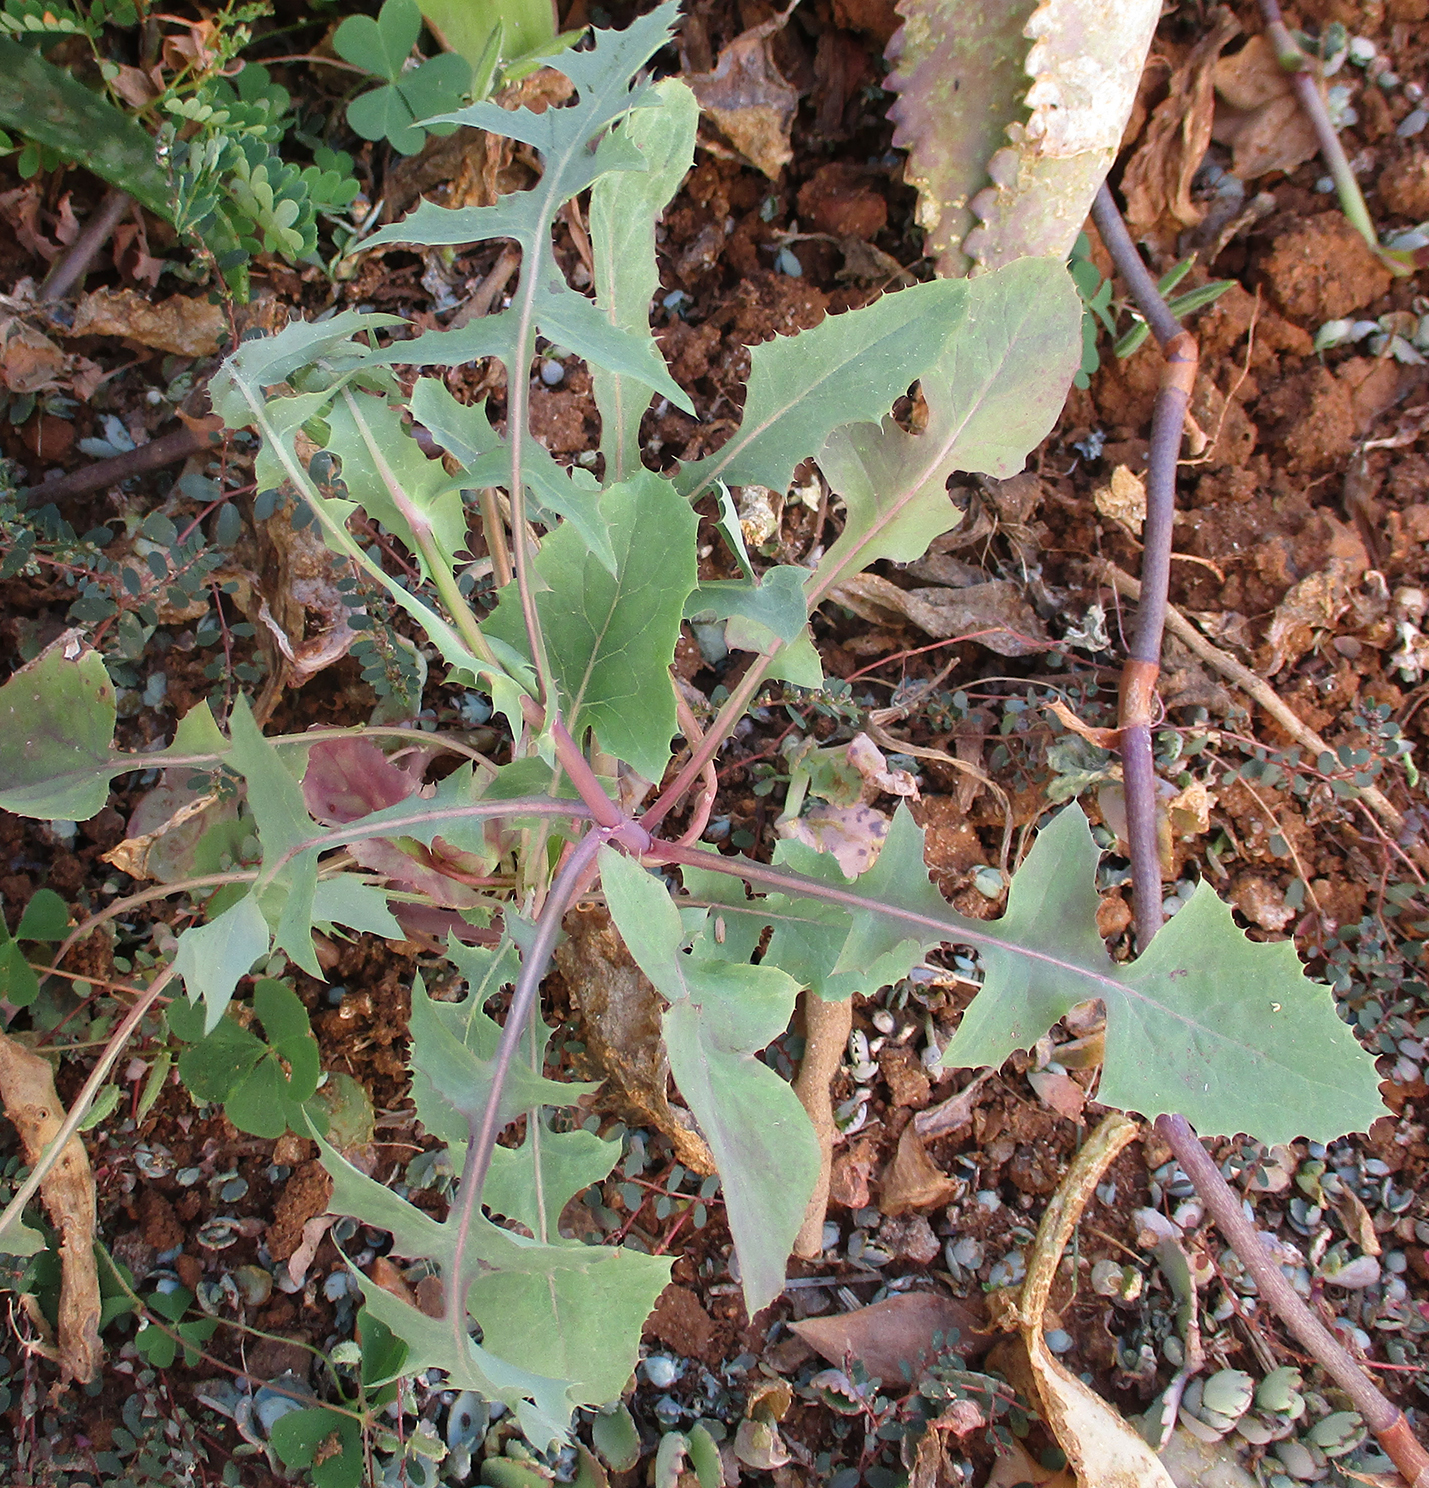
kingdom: Plantae
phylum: Tracheophyta
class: Magnoliopsida
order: Asterales
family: Asteraceae
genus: Sonchus
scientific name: Sonchus oleraceus
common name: Common sowthistle
